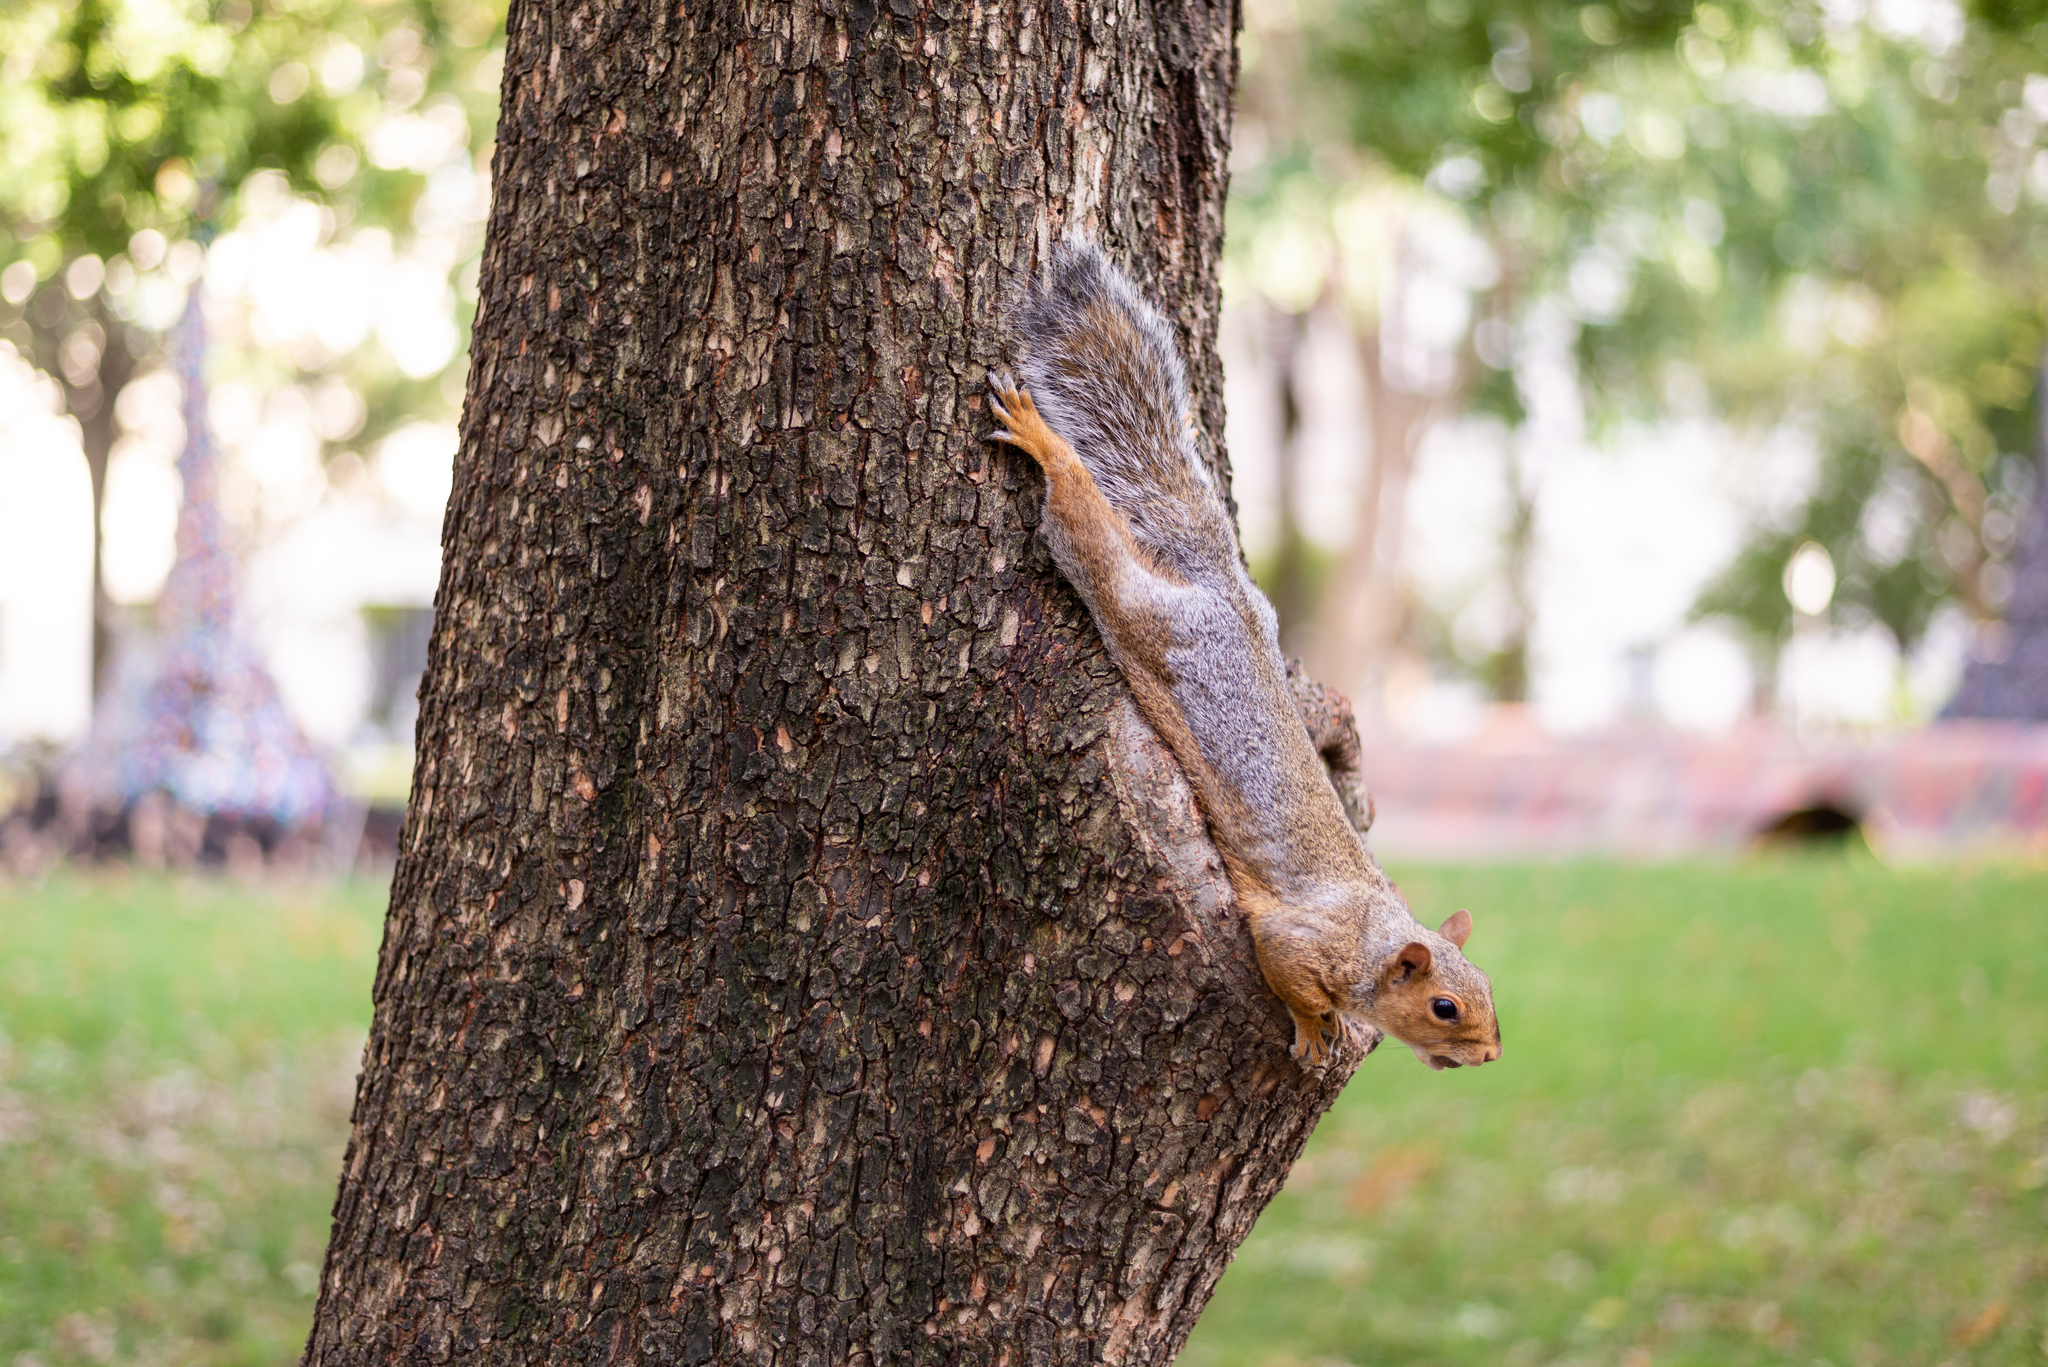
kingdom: Animalia
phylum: Chordata
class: Mammalia
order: Rodentia
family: Sciuridae
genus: Sciurus
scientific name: Sciurus carolinensis
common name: Eastern gray squirrel
